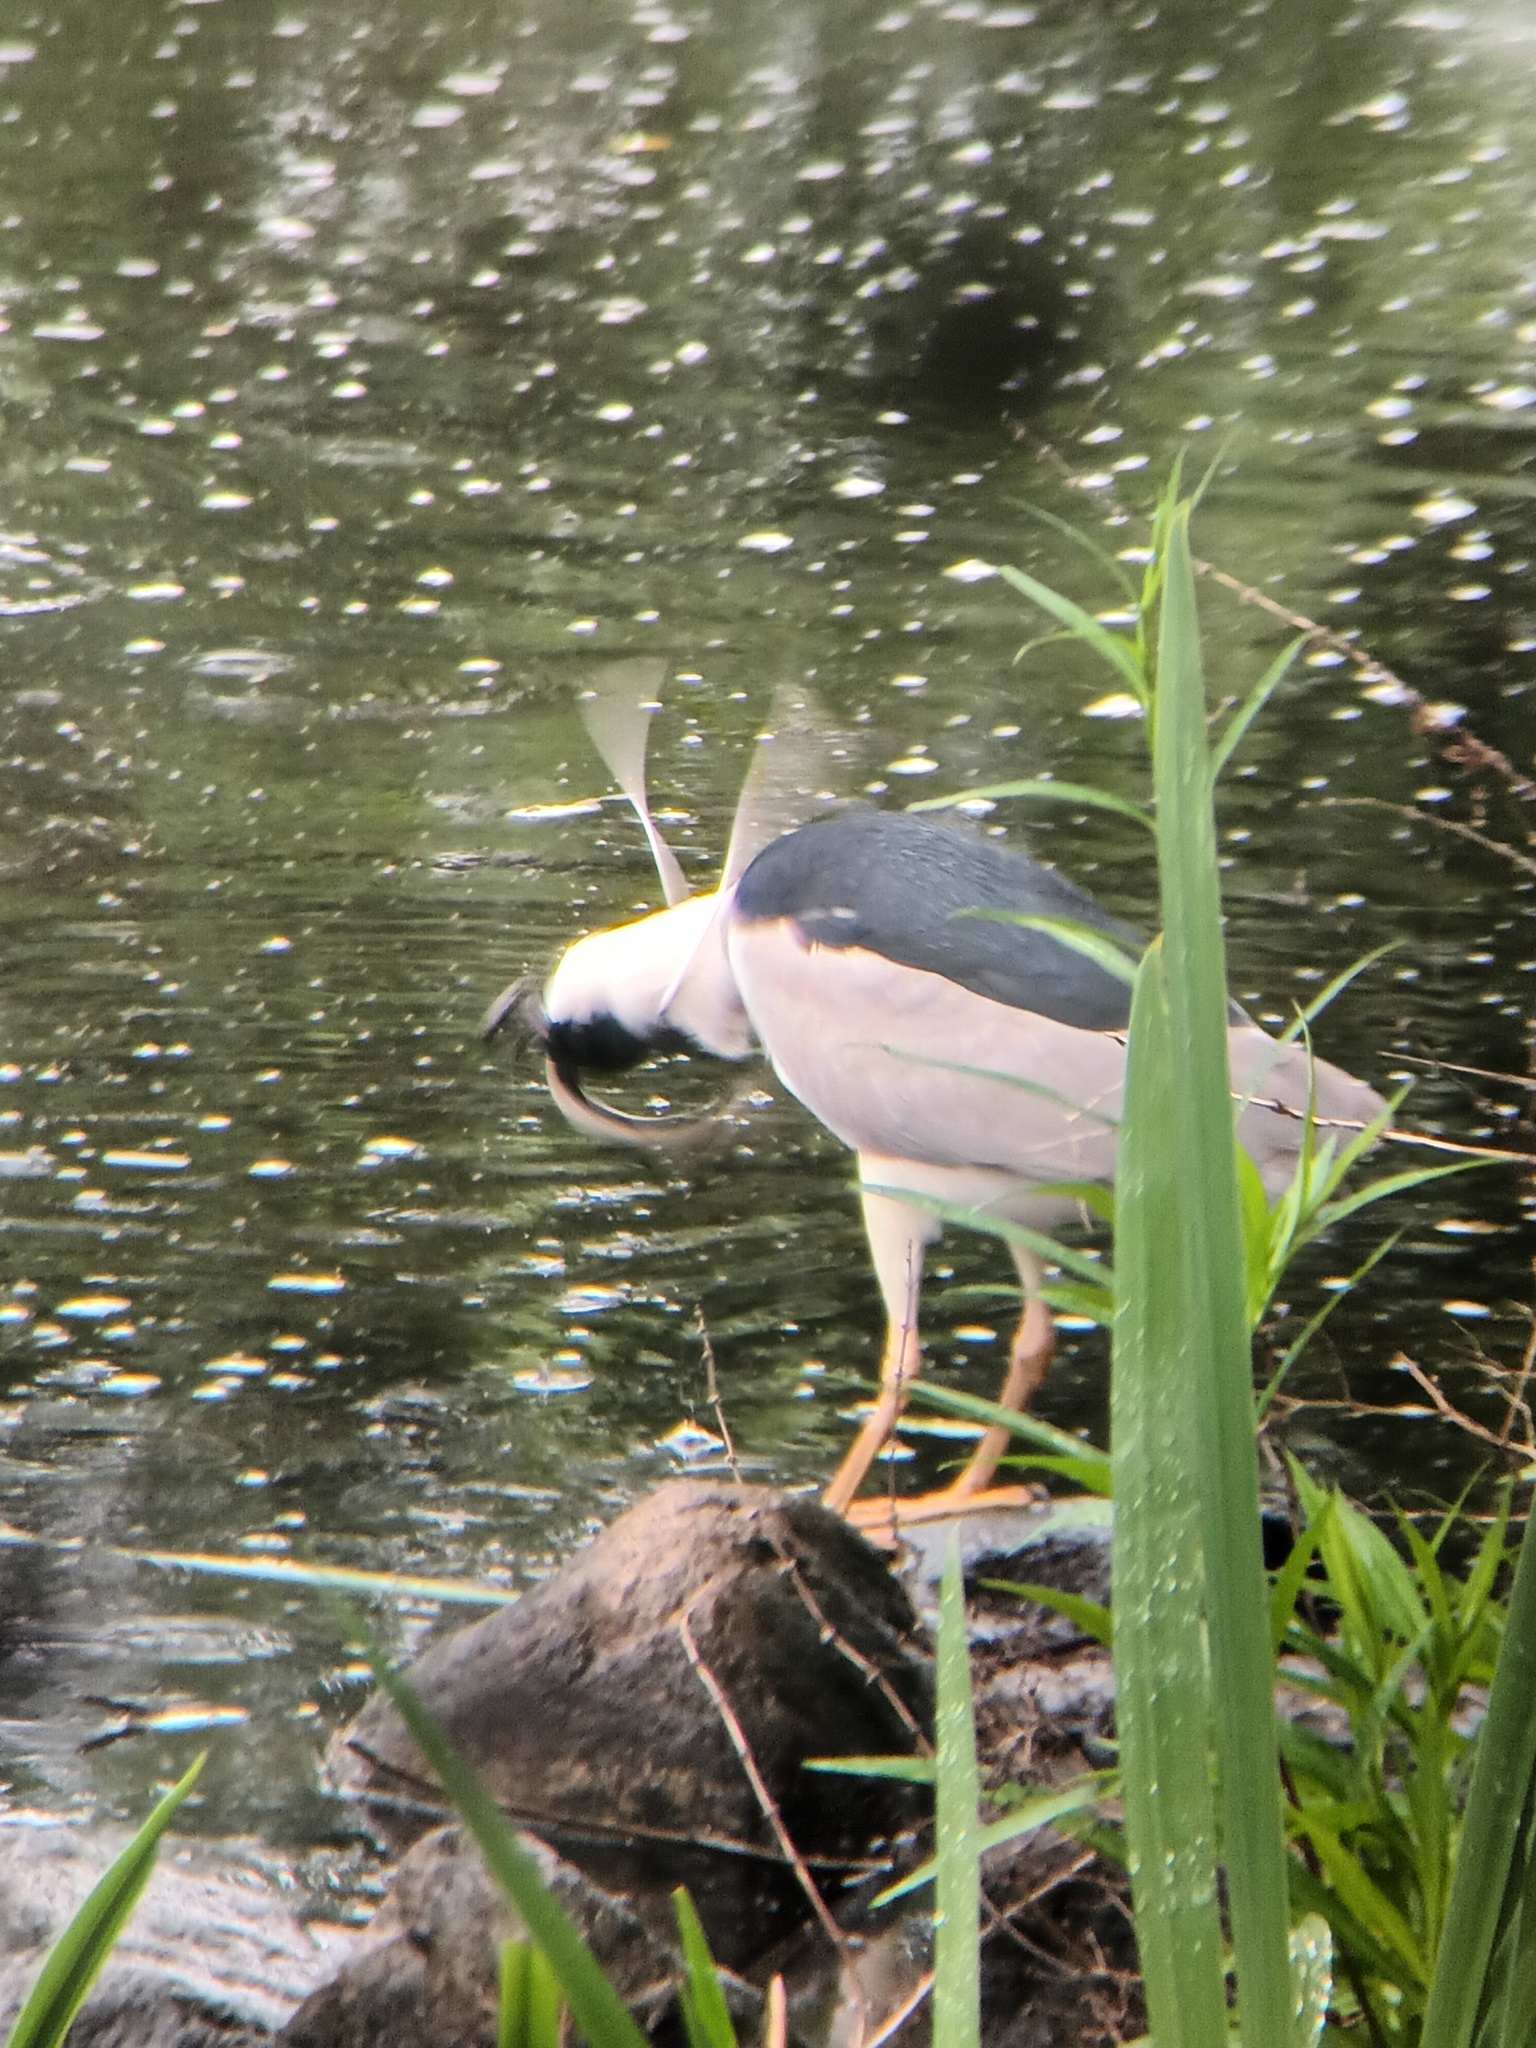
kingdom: Animalia
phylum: Chordata
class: Aves
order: Pelecaniformes
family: Ardeidae
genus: Nycticorax
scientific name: Nycticorax nycticorax
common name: Black-crowned night heron
